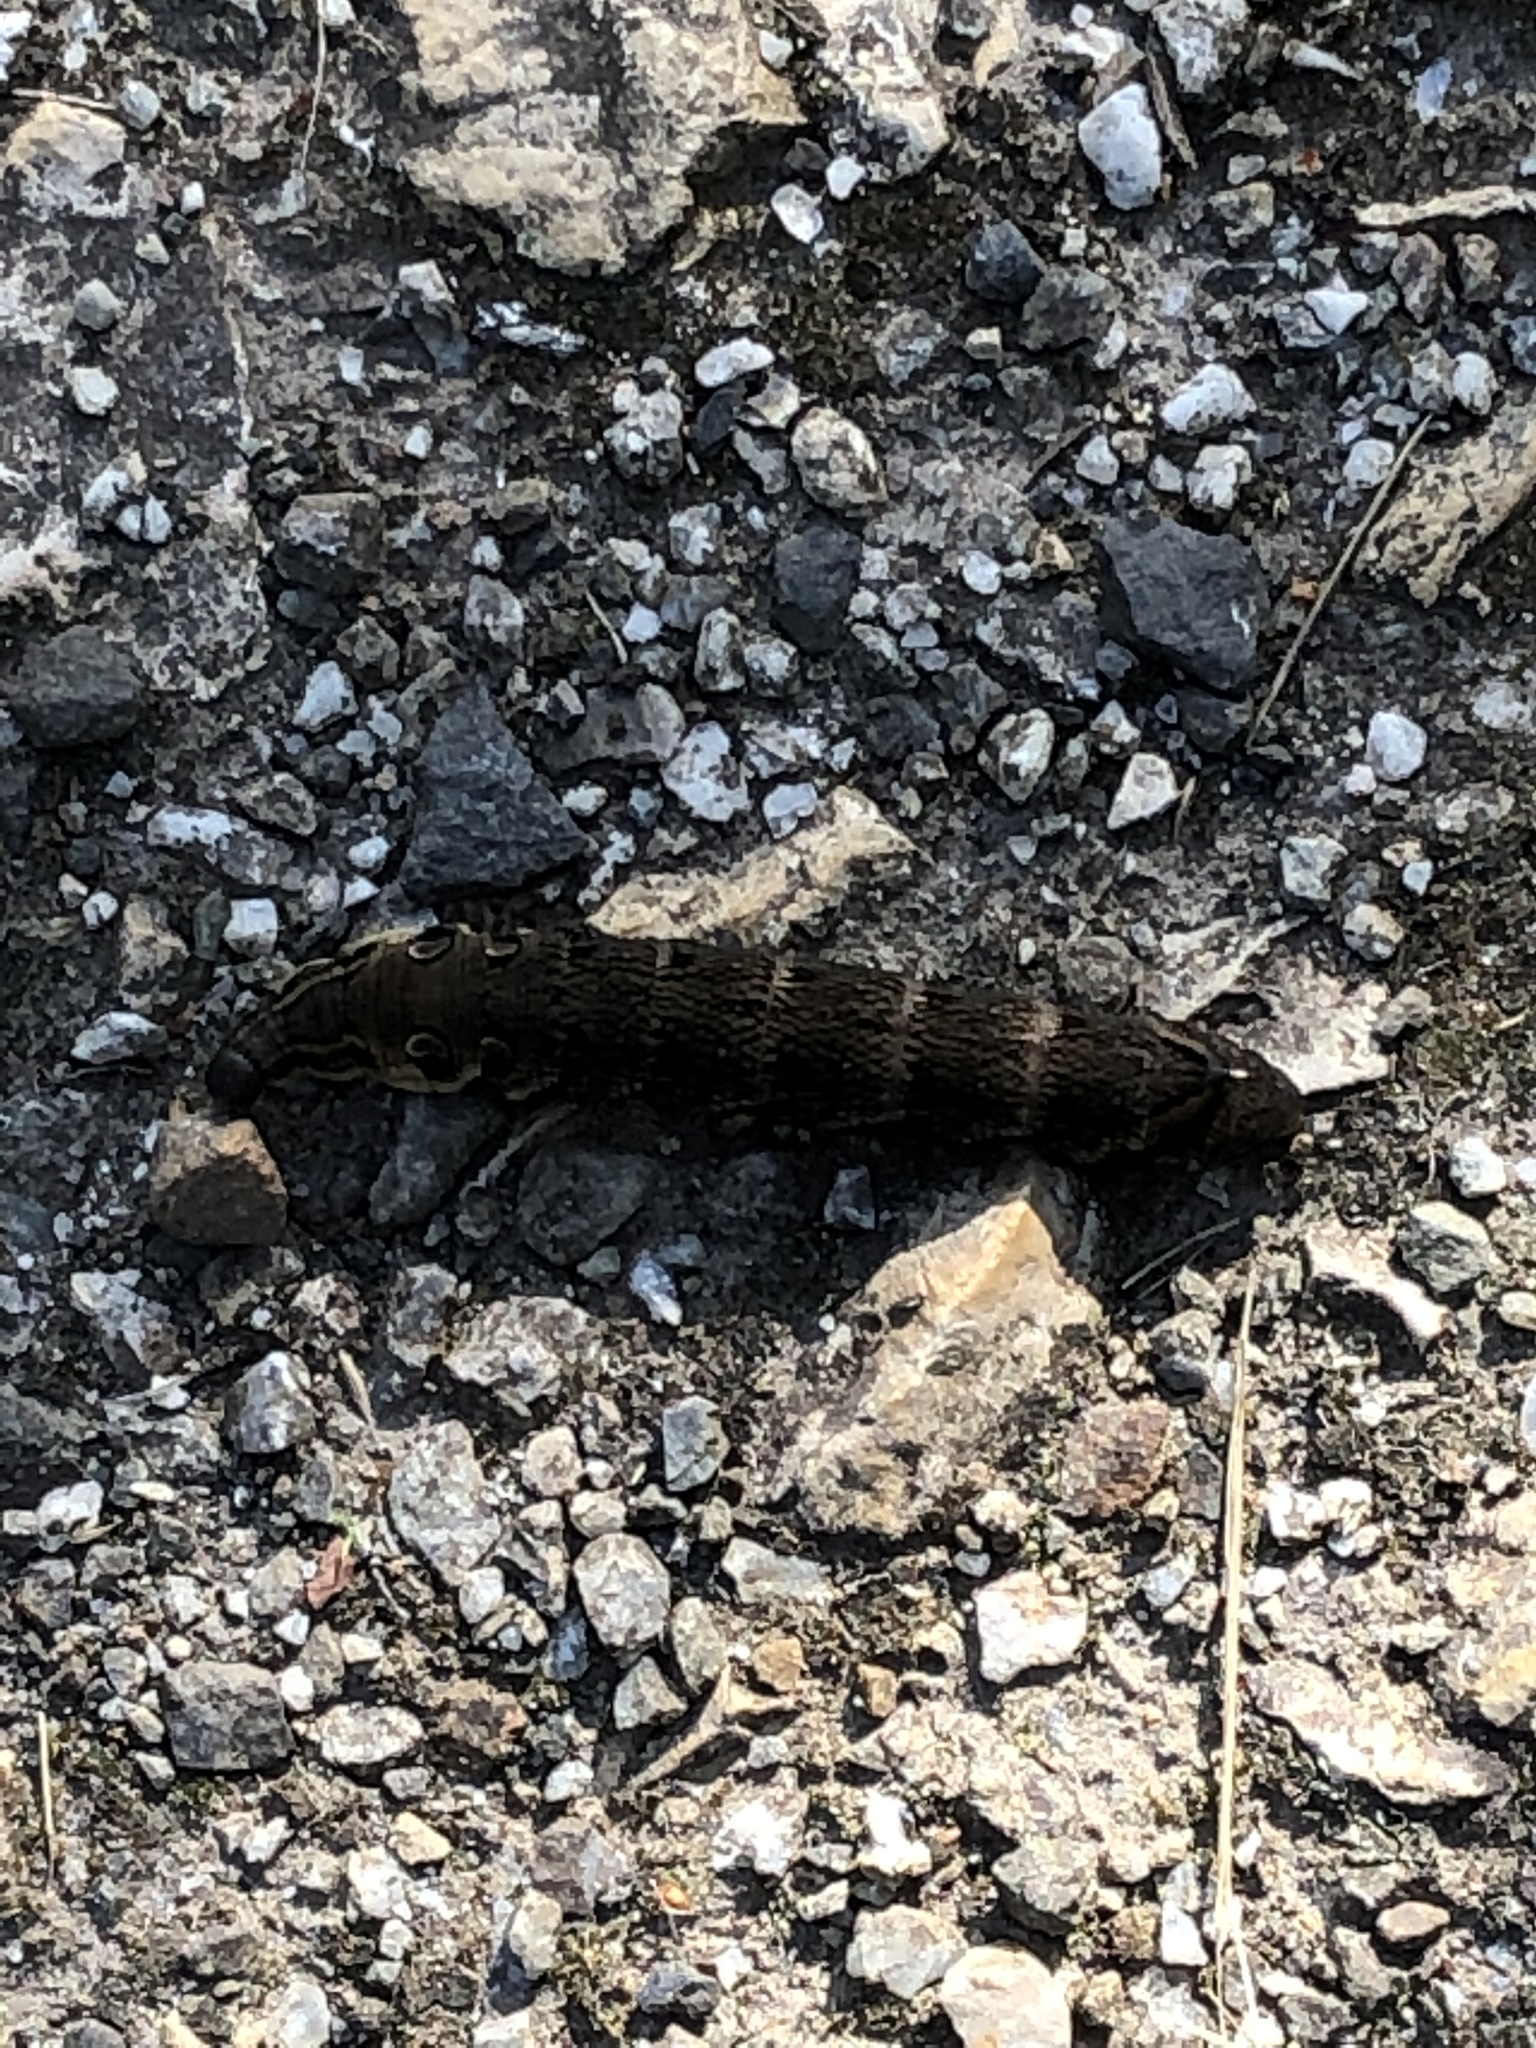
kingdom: Animalia
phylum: Arthropoda
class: Insecta
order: Lepidoptera
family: Sphingidae
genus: Deilephila
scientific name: Deilephila elpenor
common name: Elephant hawk-moth
